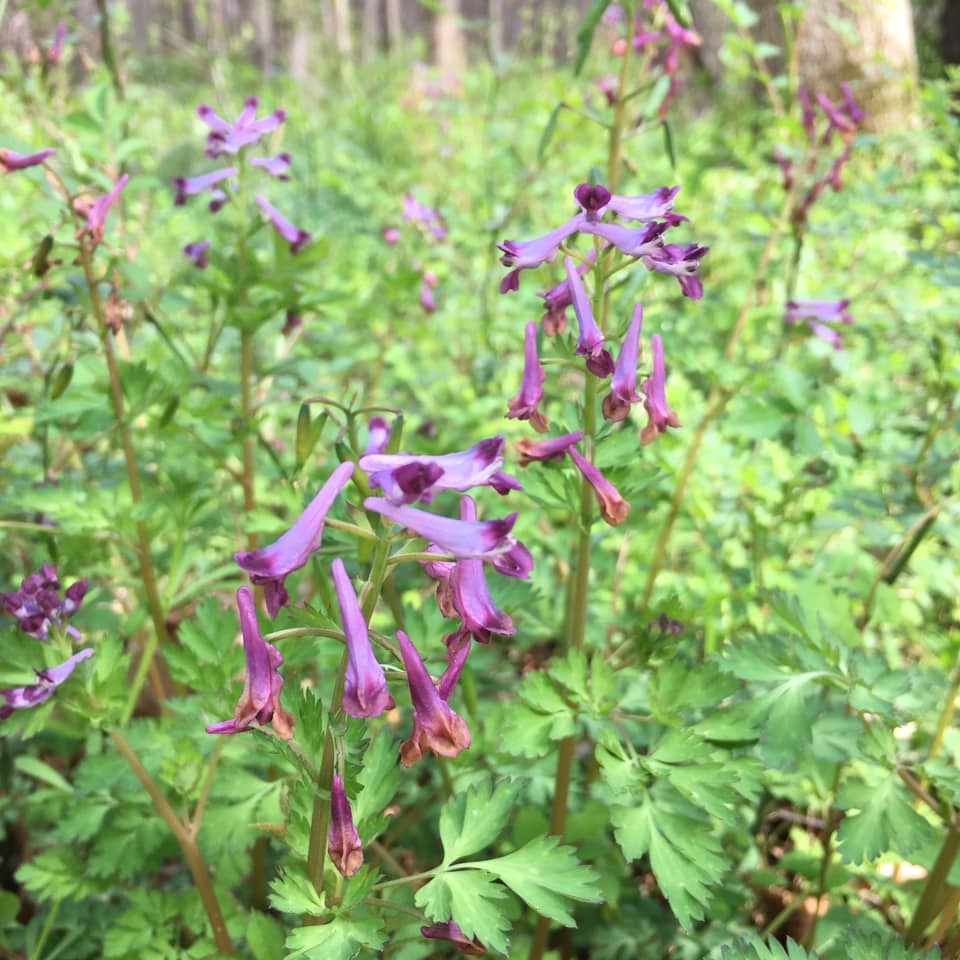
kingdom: Plantae
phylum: Tracheophyta
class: Magnoliopsida
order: Ranunculales
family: Papaveraceae
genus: Corydalis
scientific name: Corydalis incisa
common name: Incised fumewort
